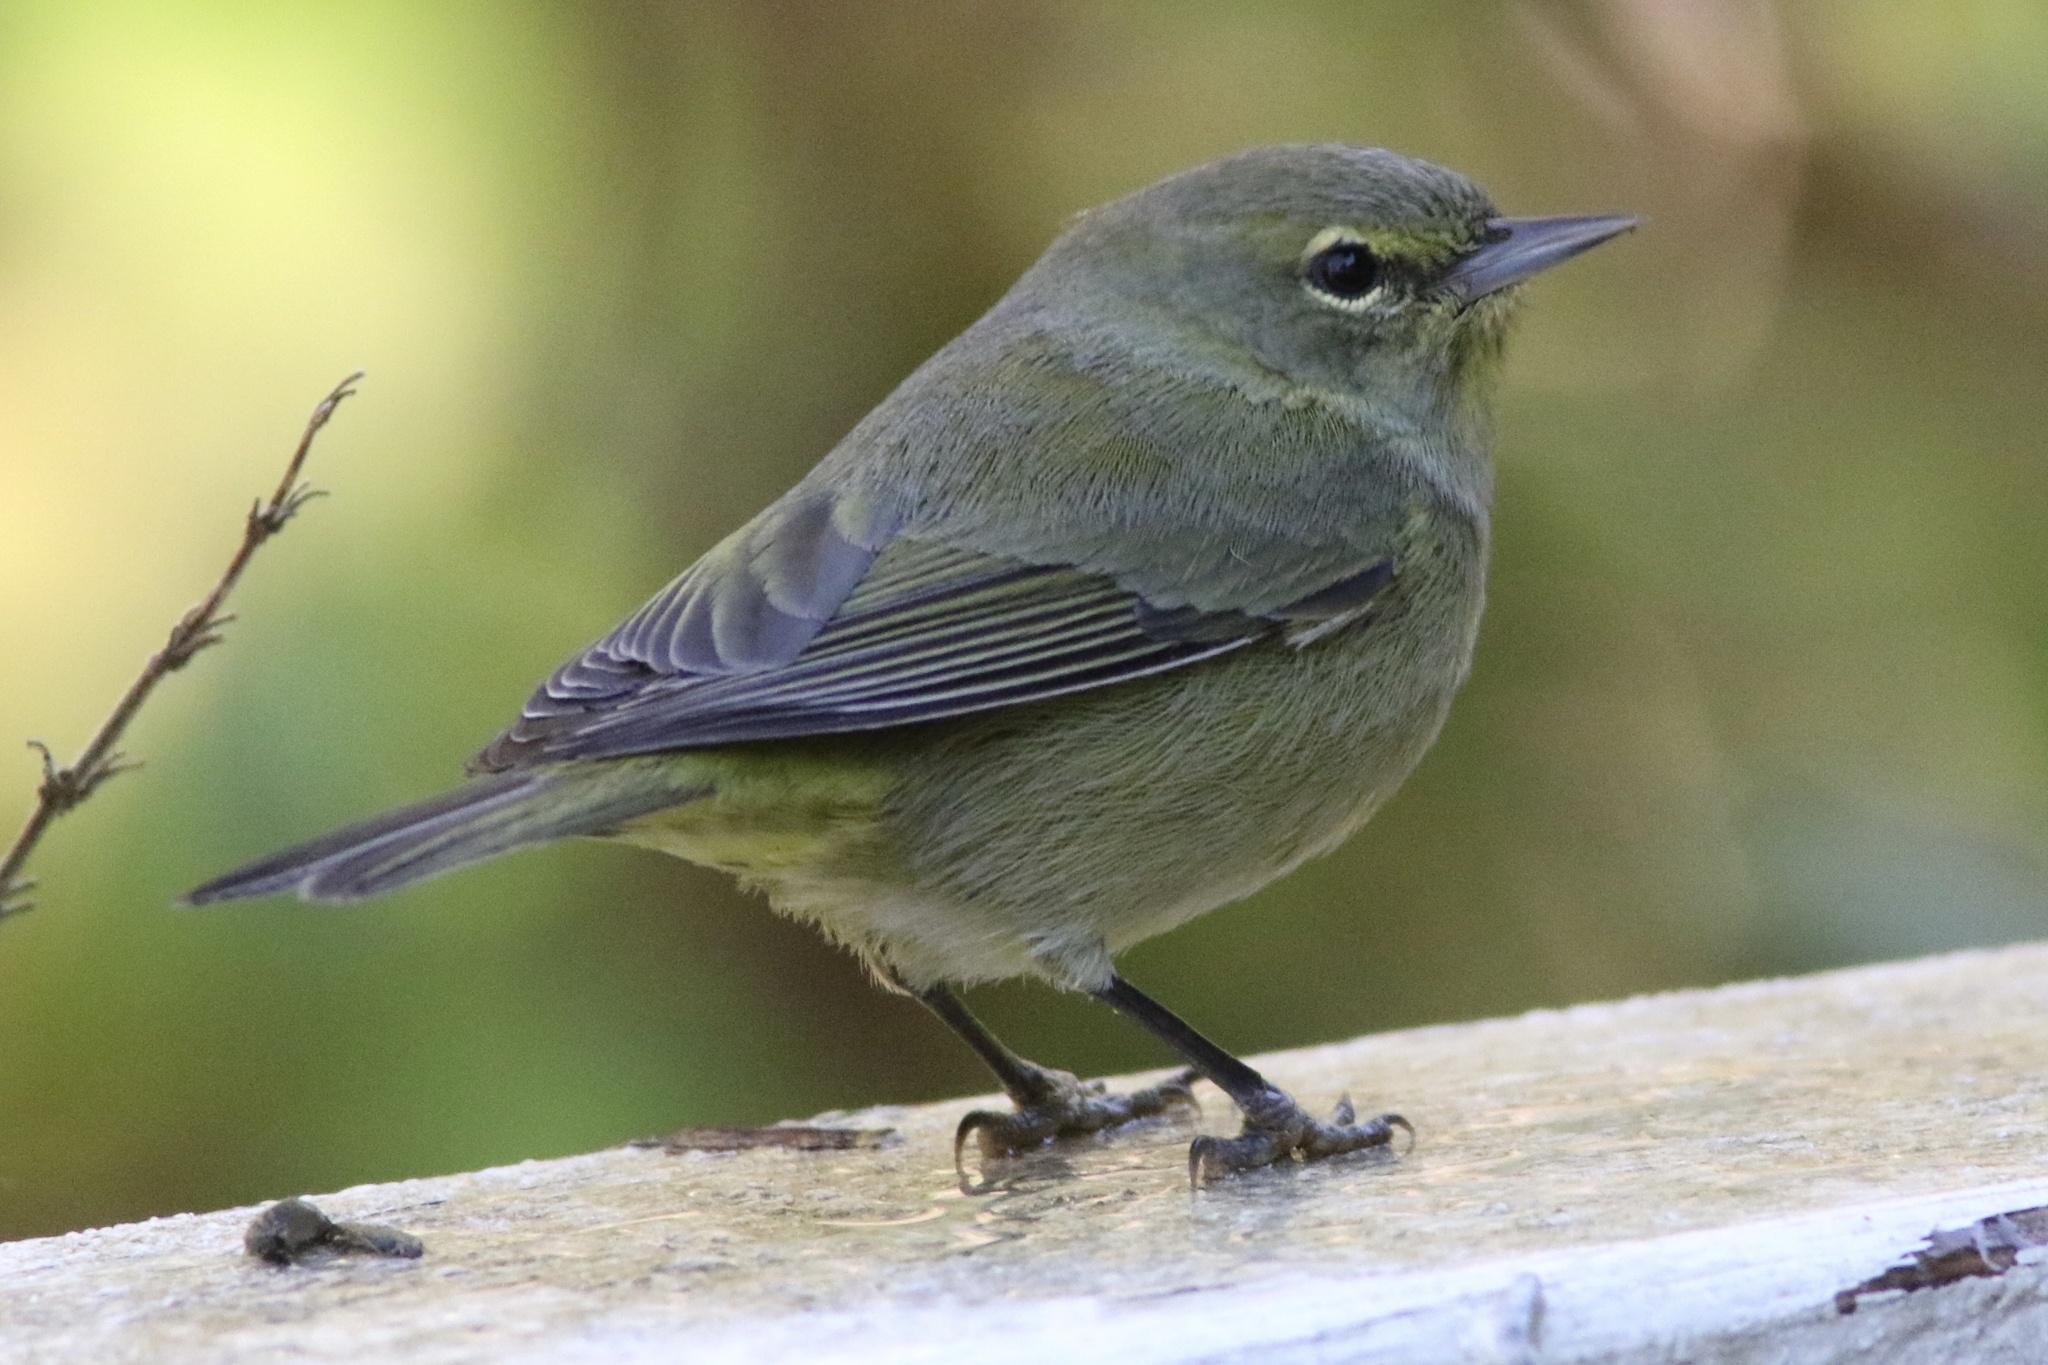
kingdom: Animalia
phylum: Chordata
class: Aves
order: Passeriformes
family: Parulidae
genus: Leiothlypis
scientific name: Leiothlypis celata
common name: Orange-crowned warbler
